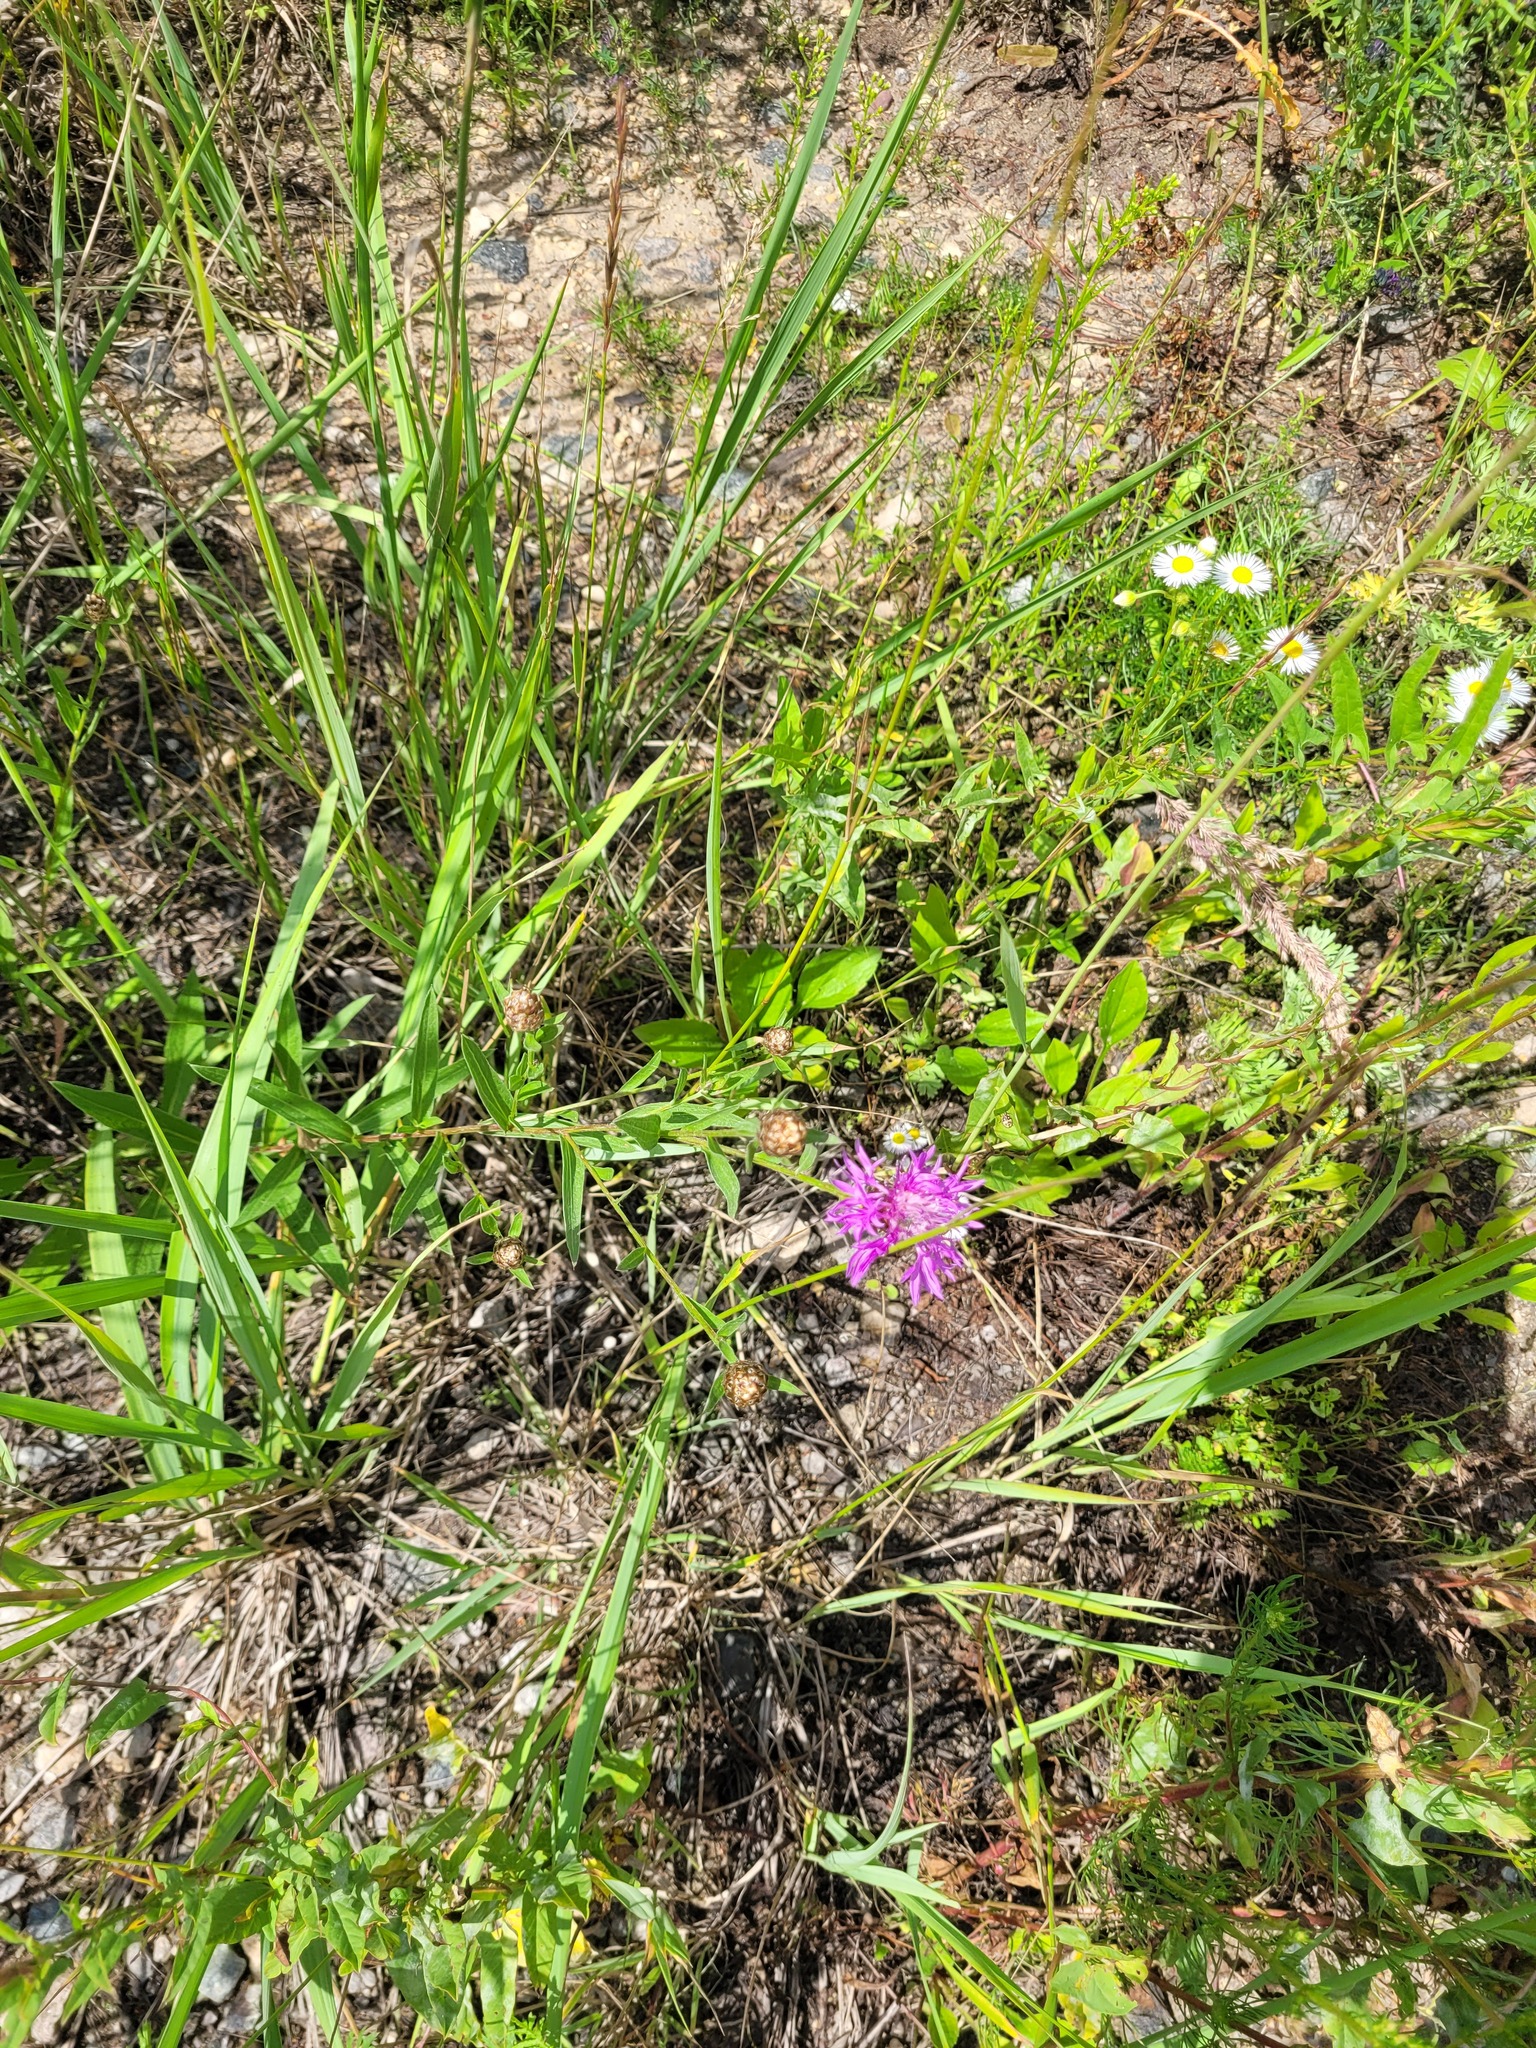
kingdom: Plantae
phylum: Tracheophyta
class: Magnoliopsida
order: Asterales
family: Asteraceae
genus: Centaurea
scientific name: Centaurea jacea
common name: Brown knapweed
